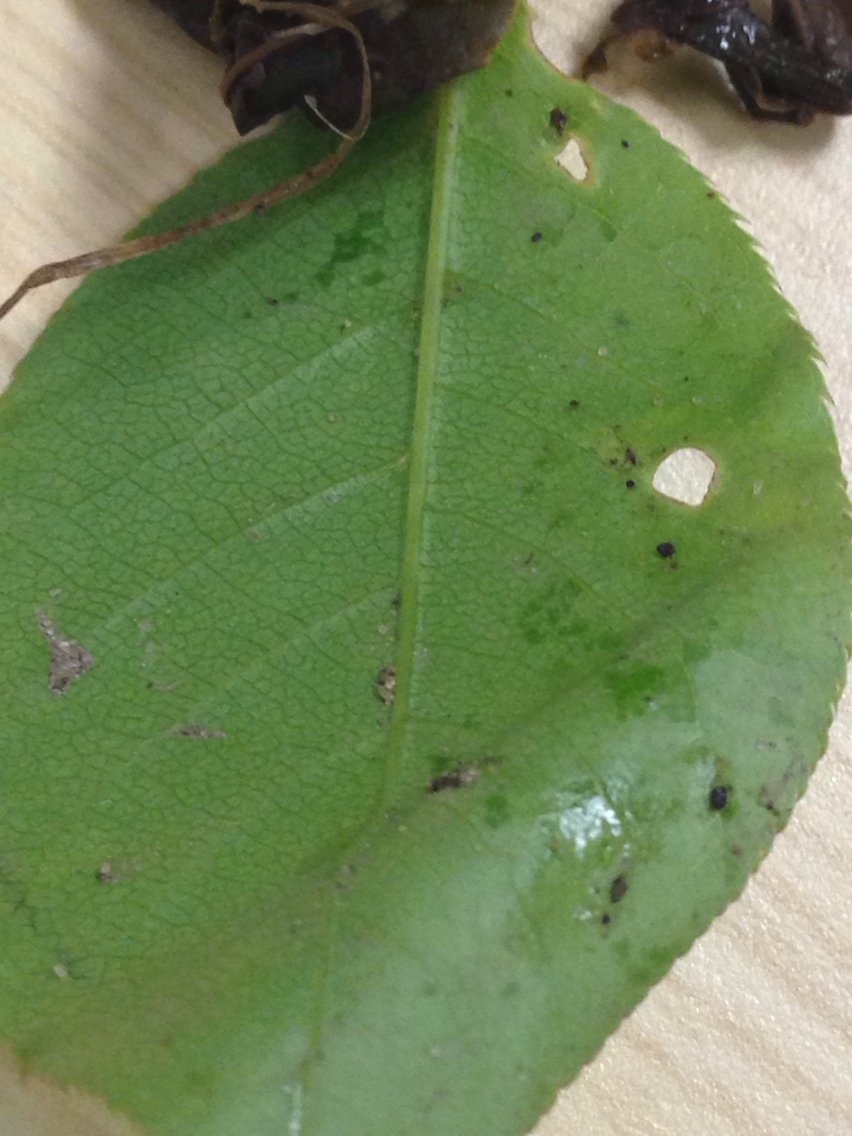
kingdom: Plantae
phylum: Tracheophyta
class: Magnoliopsida
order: Rosales
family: Rosaceae
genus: Prunus
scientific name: Prunus virginiana
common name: Chokecherry
